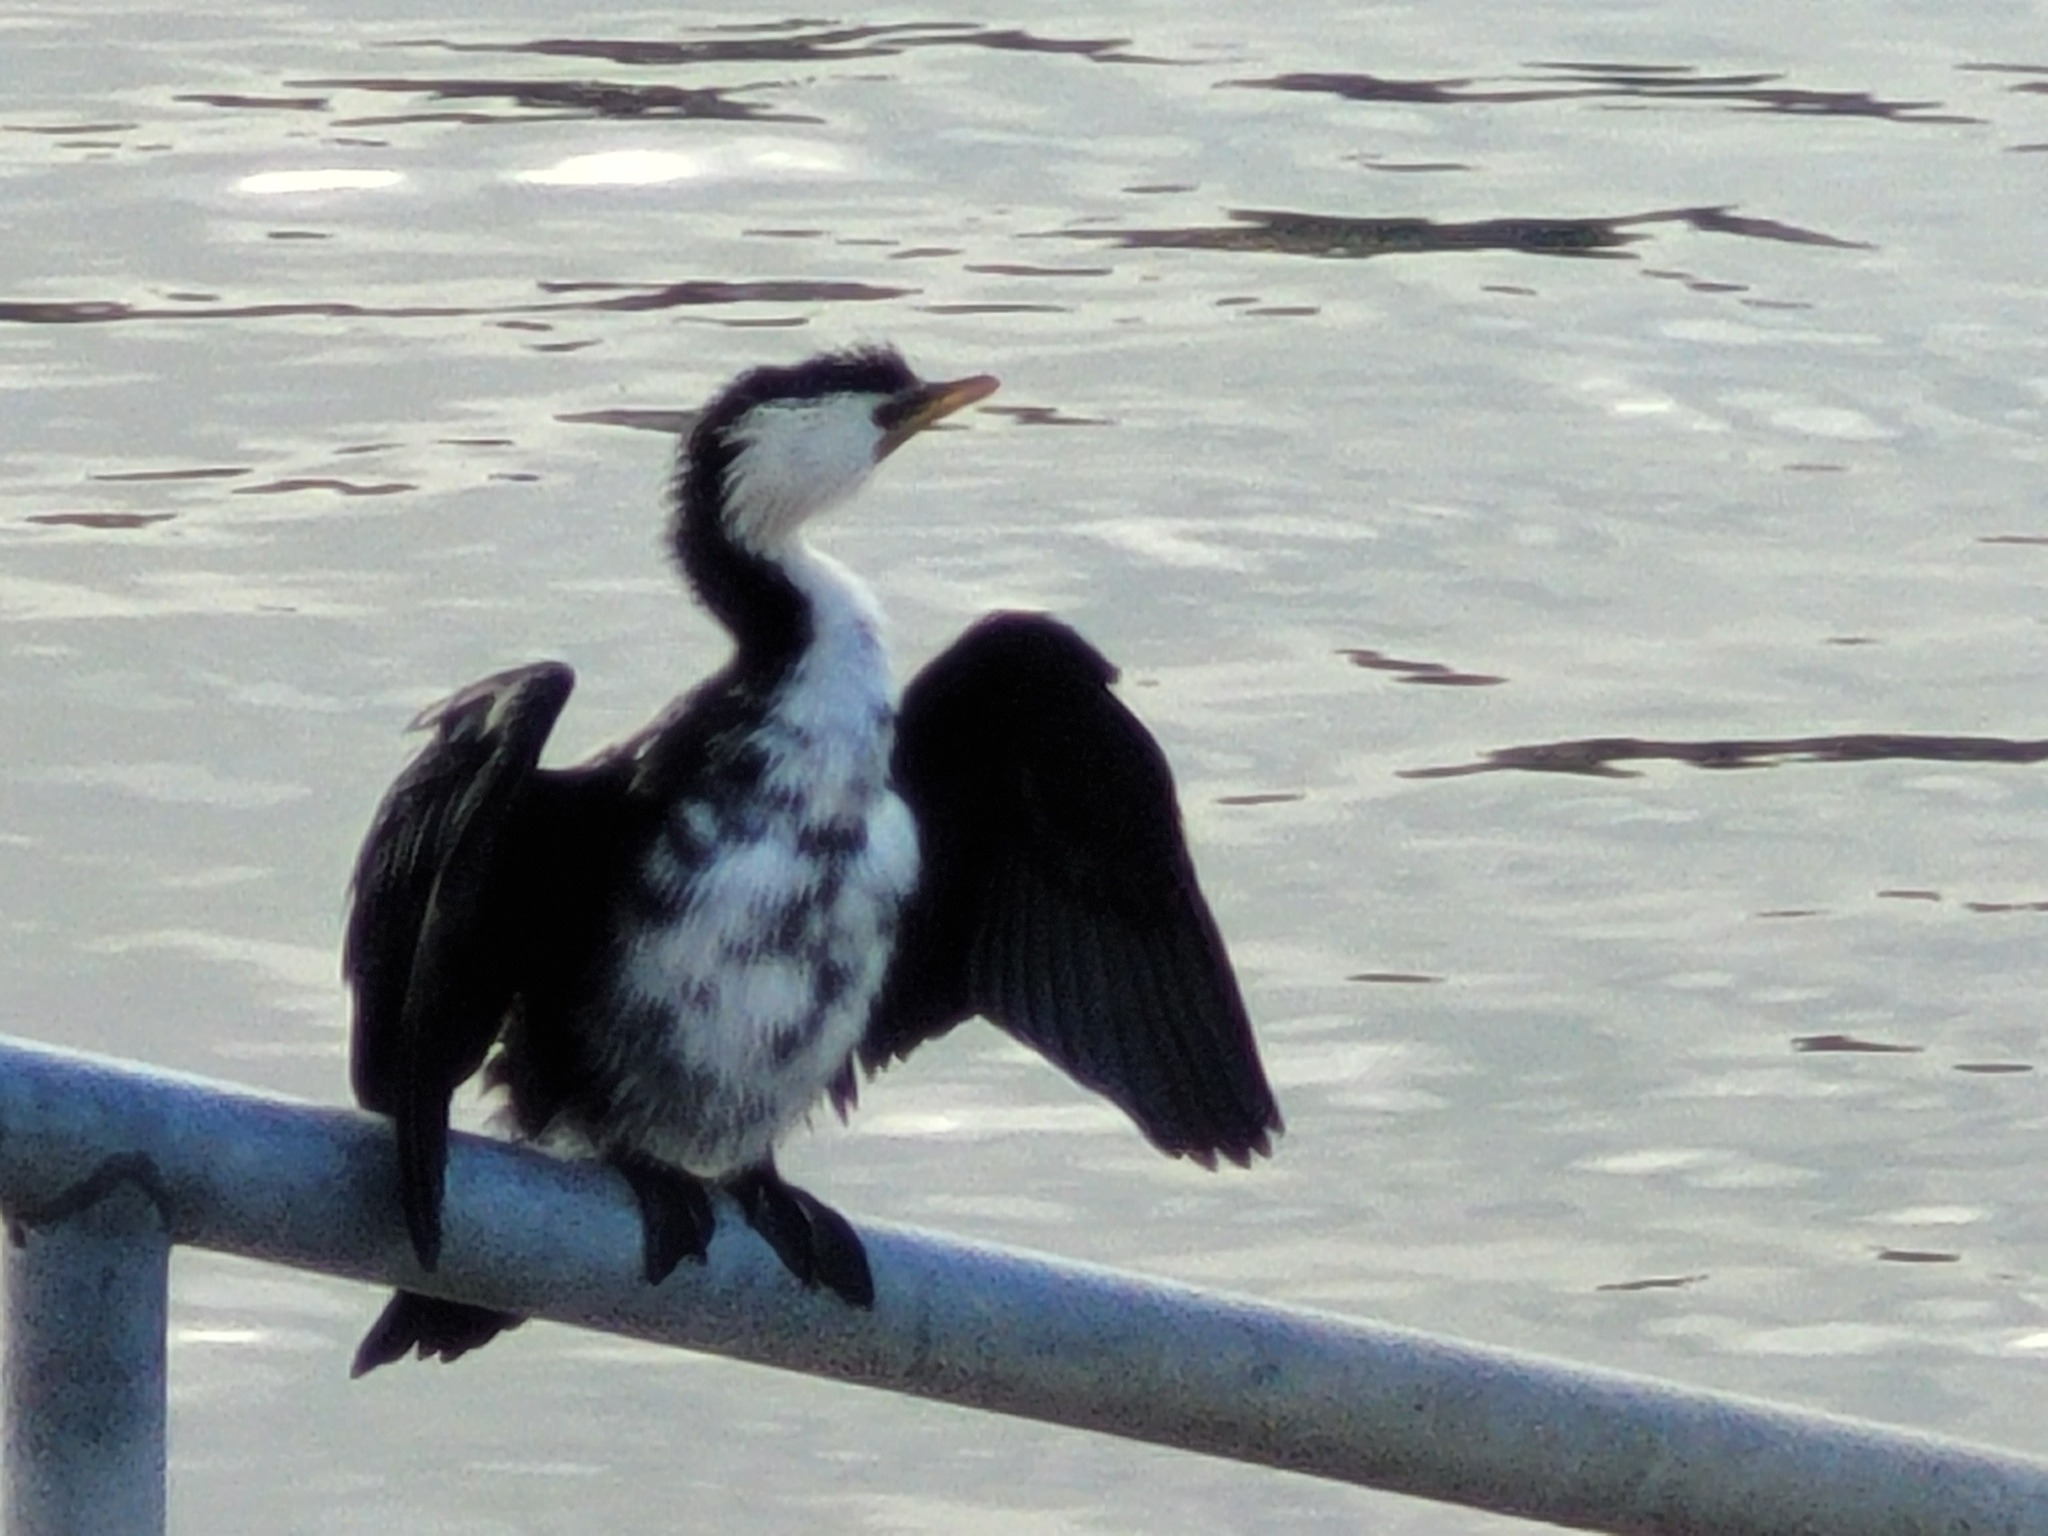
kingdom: Animalia
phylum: Chordata
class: Aves
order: Suliformes
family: Phalacrocoracidae
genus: Microcarbo
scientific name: Microcarbo melanoleucos
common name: Little pied cormorant
